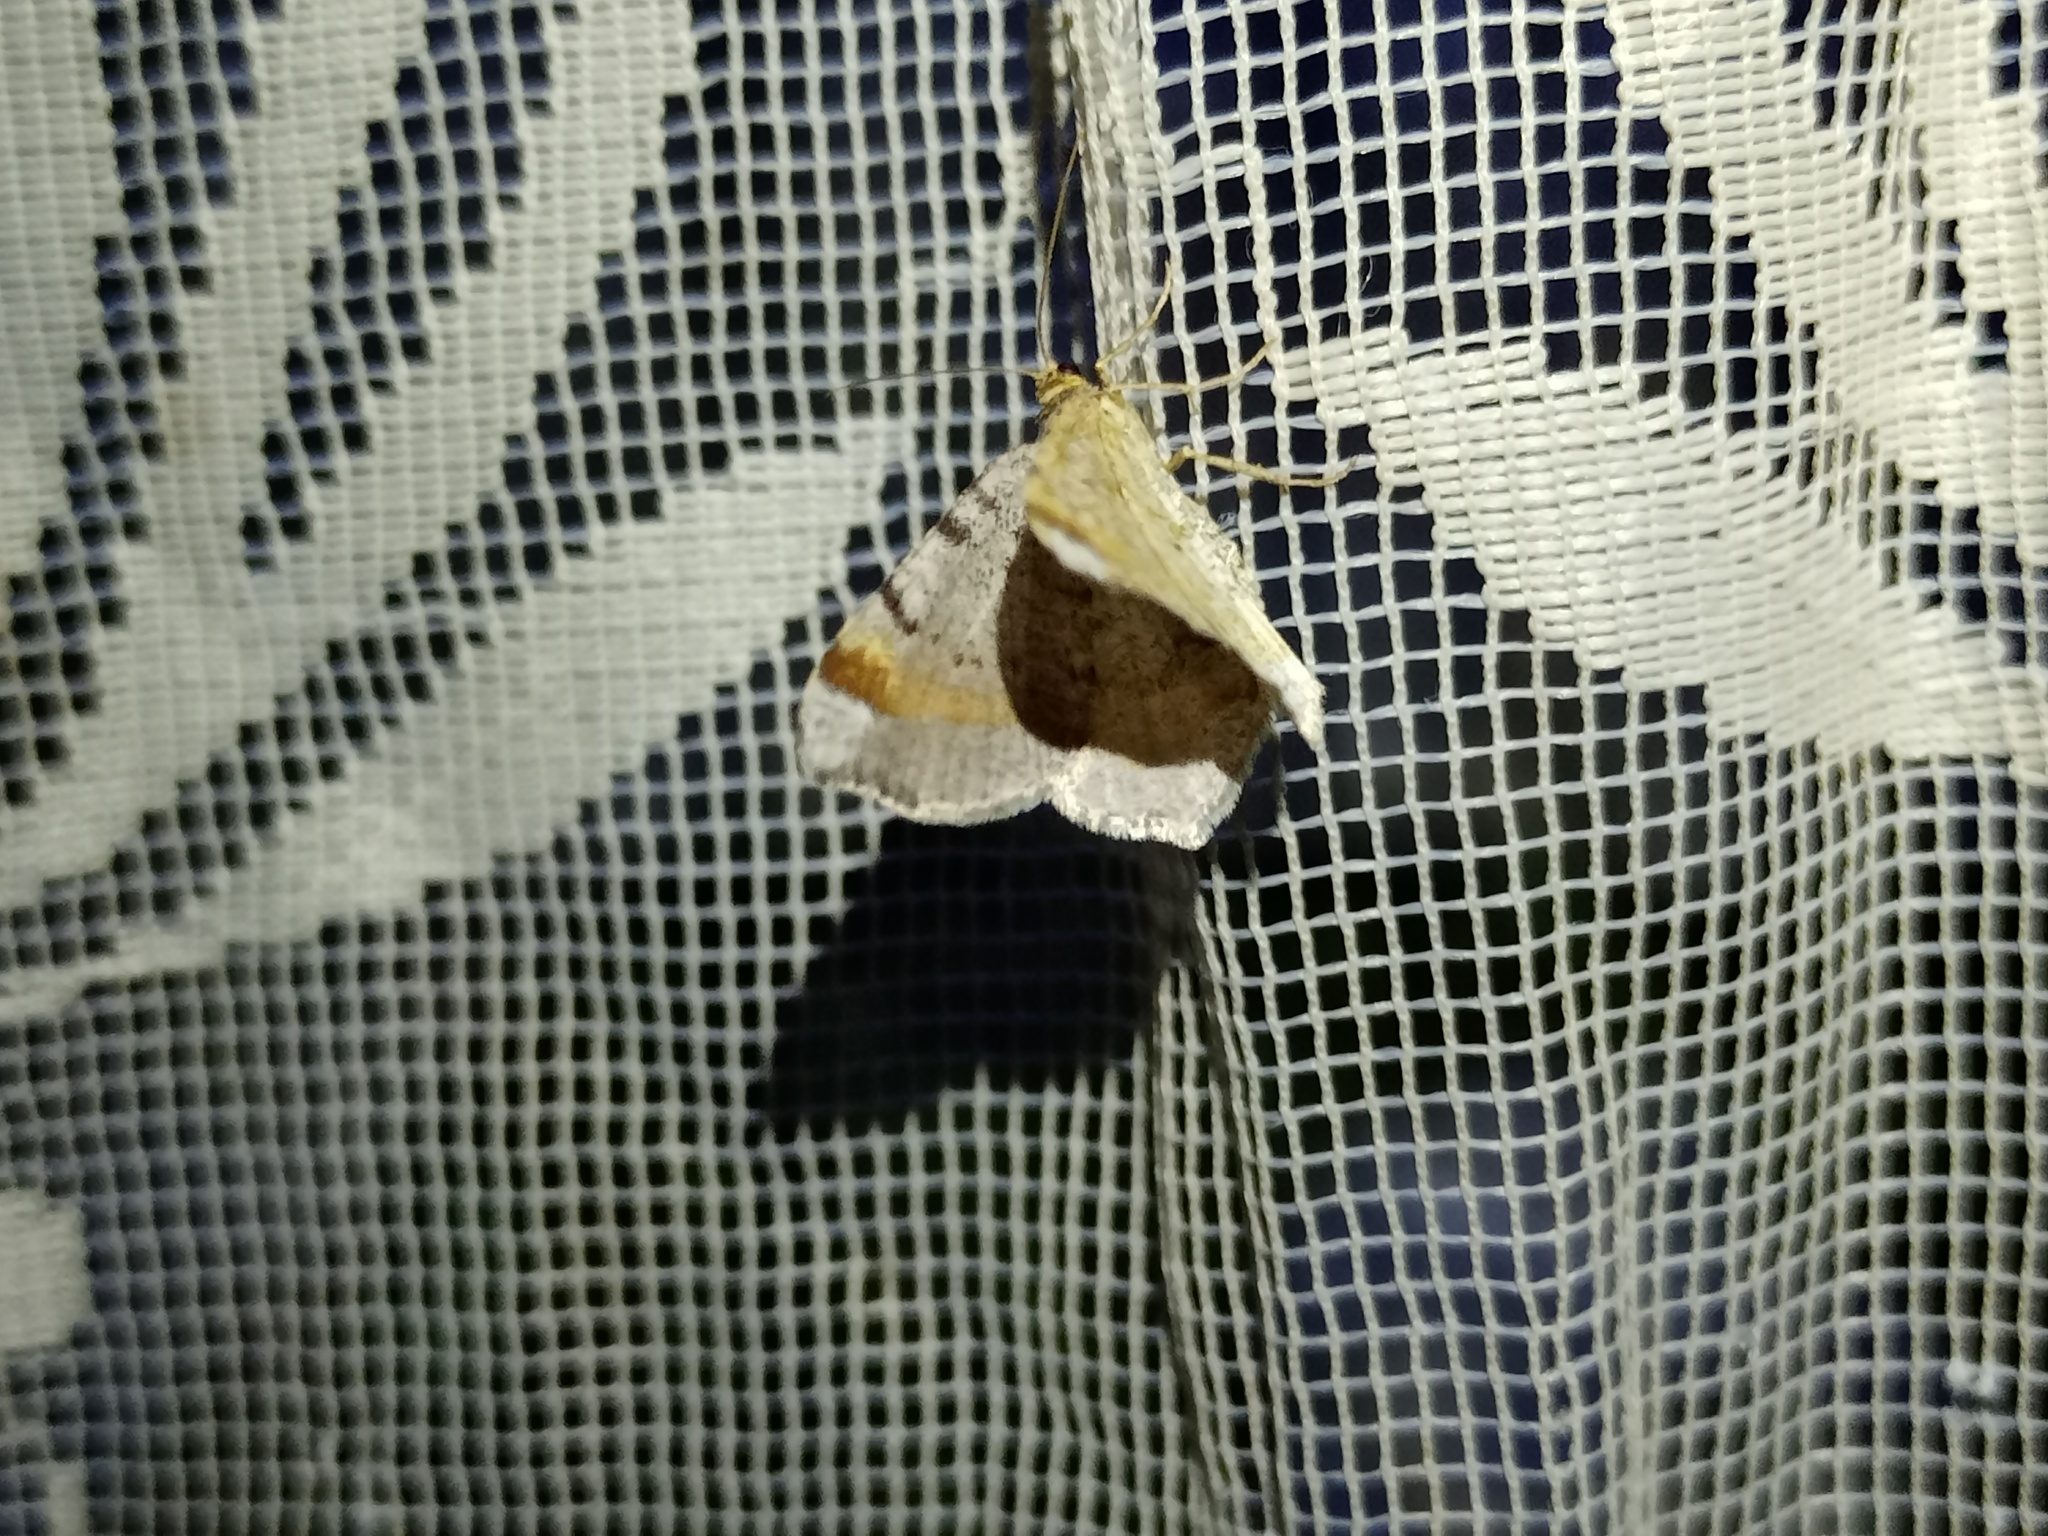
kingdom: Animalia
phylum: Arthropoda
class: Insecta
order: Lepidoptera
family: Geometridae
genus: Macaria
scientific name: Macaria liturata
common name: Tawny-barred angle
